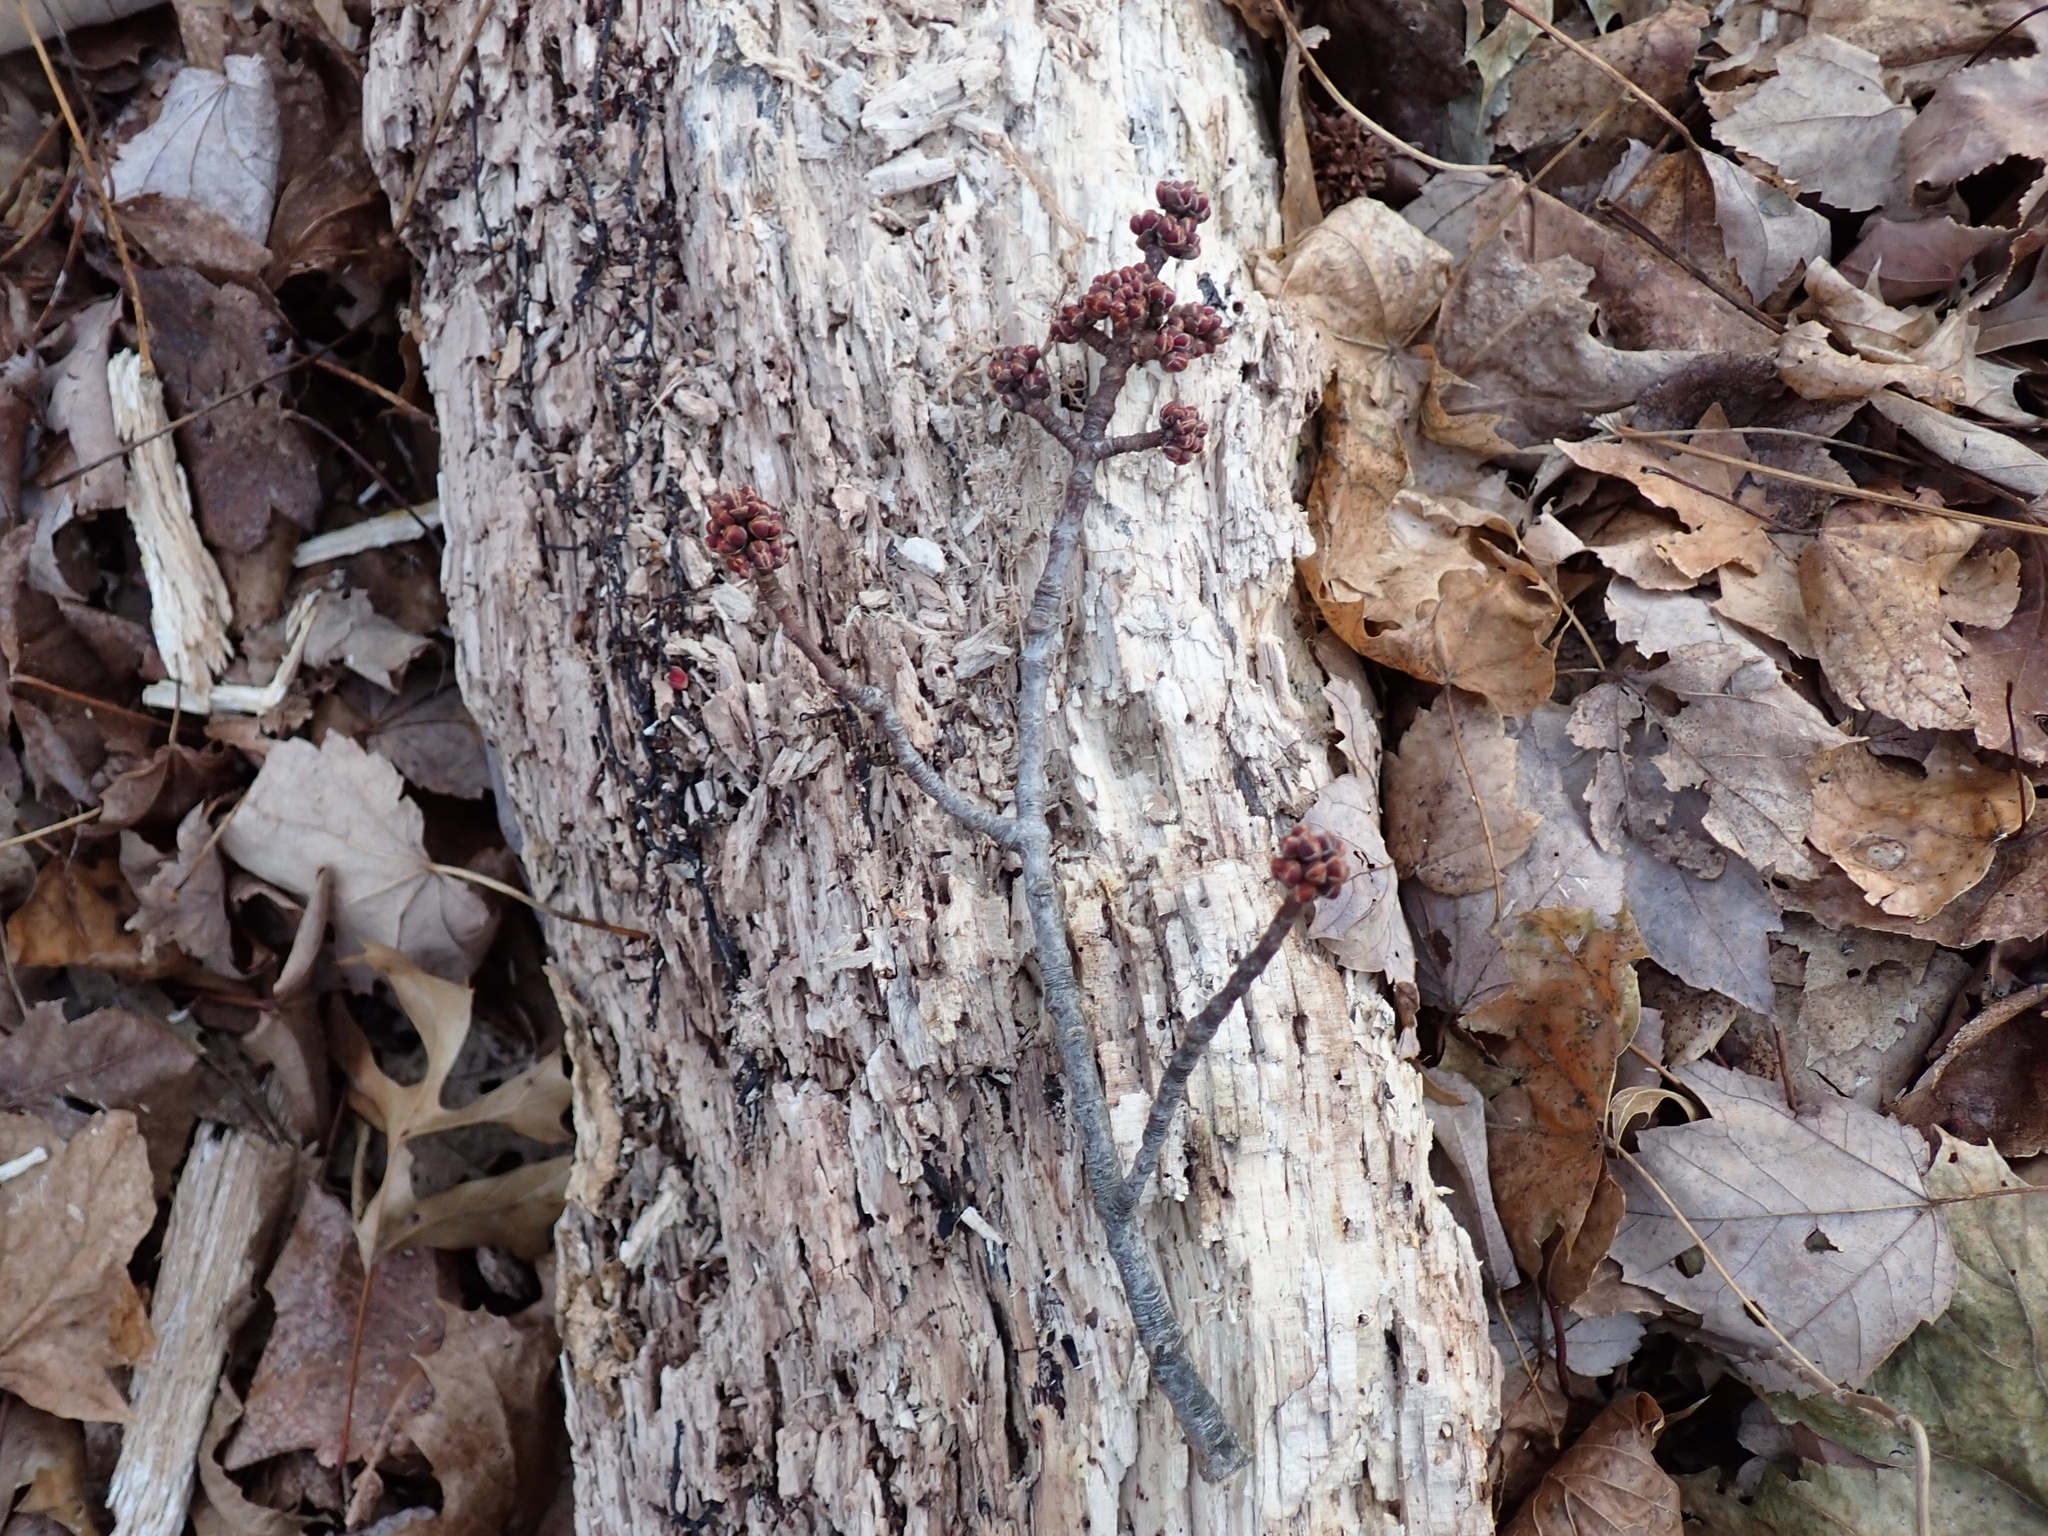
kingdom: Plantae
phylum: Tracheophyta
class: Magnoliopsida
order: Sapindales
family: Sapindaceae
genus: Acer
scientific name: Acer rubrum
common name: Red maple
